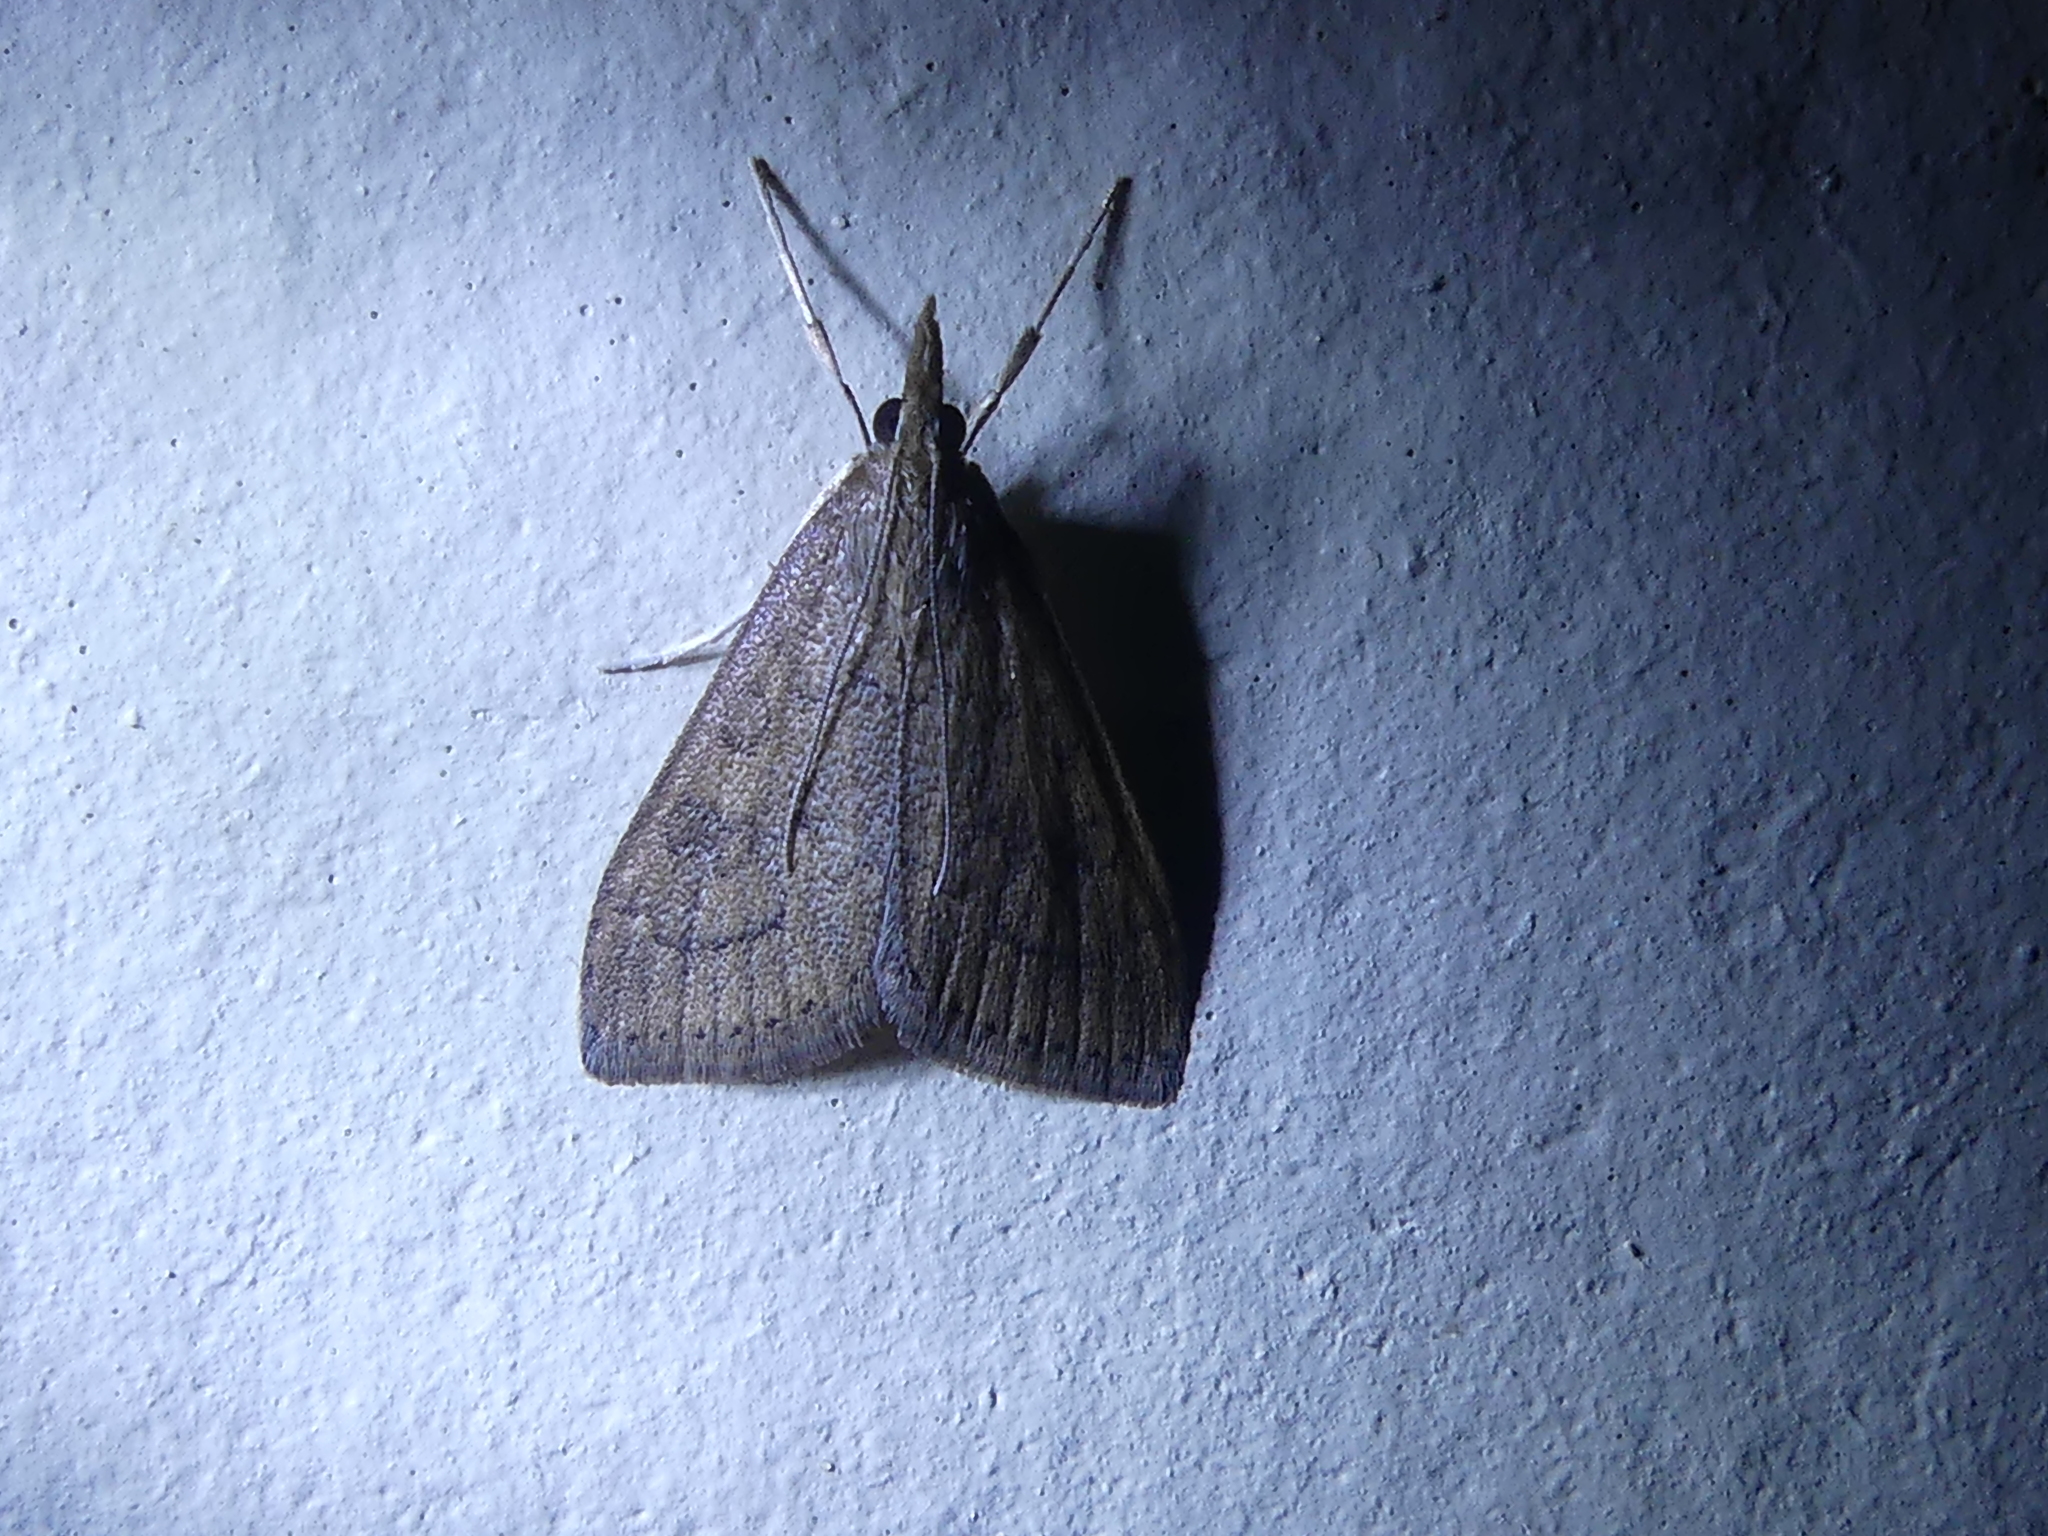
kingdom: Animalia
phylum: Arthropoda
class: Insecta
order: Lepidoptera
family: Crambidae
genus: Udea
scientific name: Udea rubigalis
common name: Celery leaftier moth
